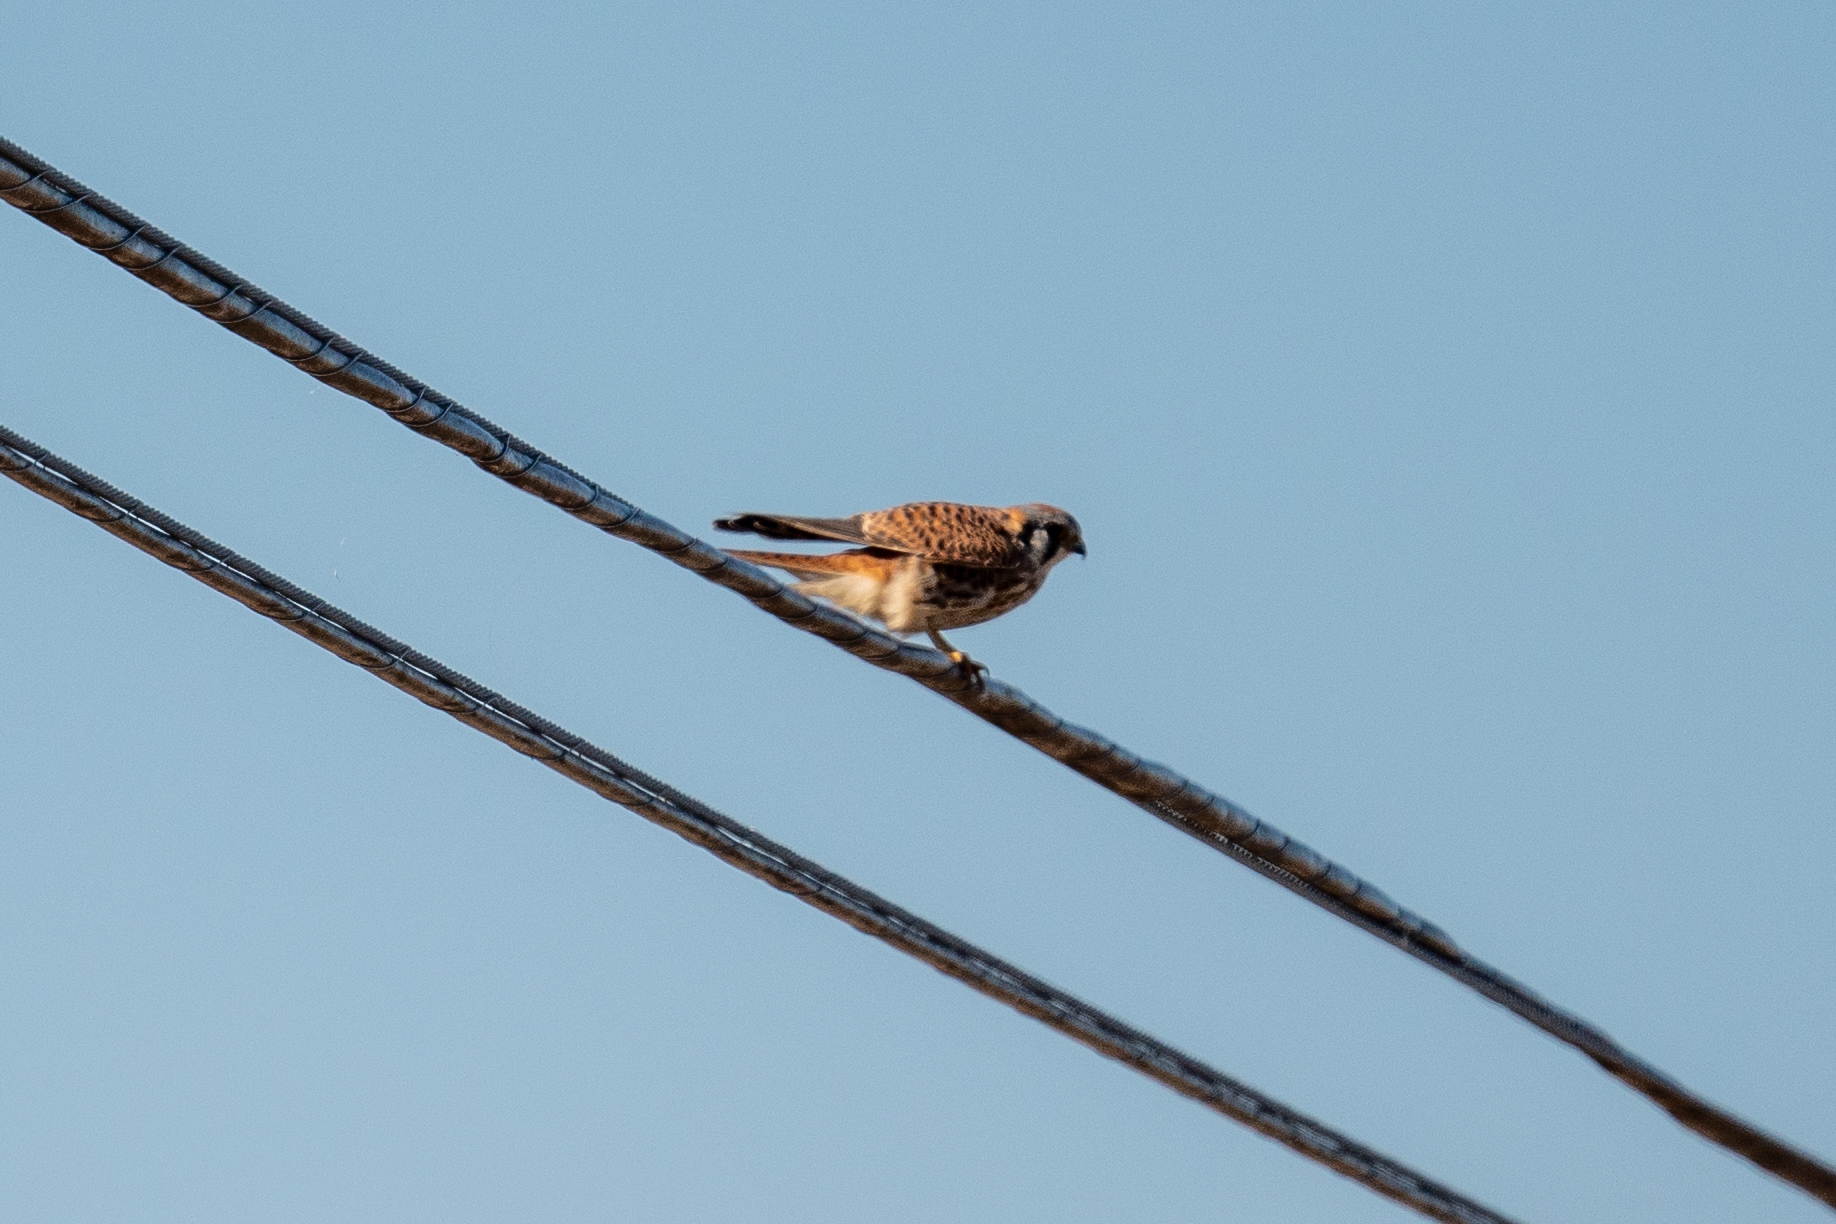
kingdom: Animalia
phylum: Chordata
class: Aves
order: Falconiformes
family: Falconidae
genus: Falco
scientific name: Falco sparverius
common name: American kestrel
